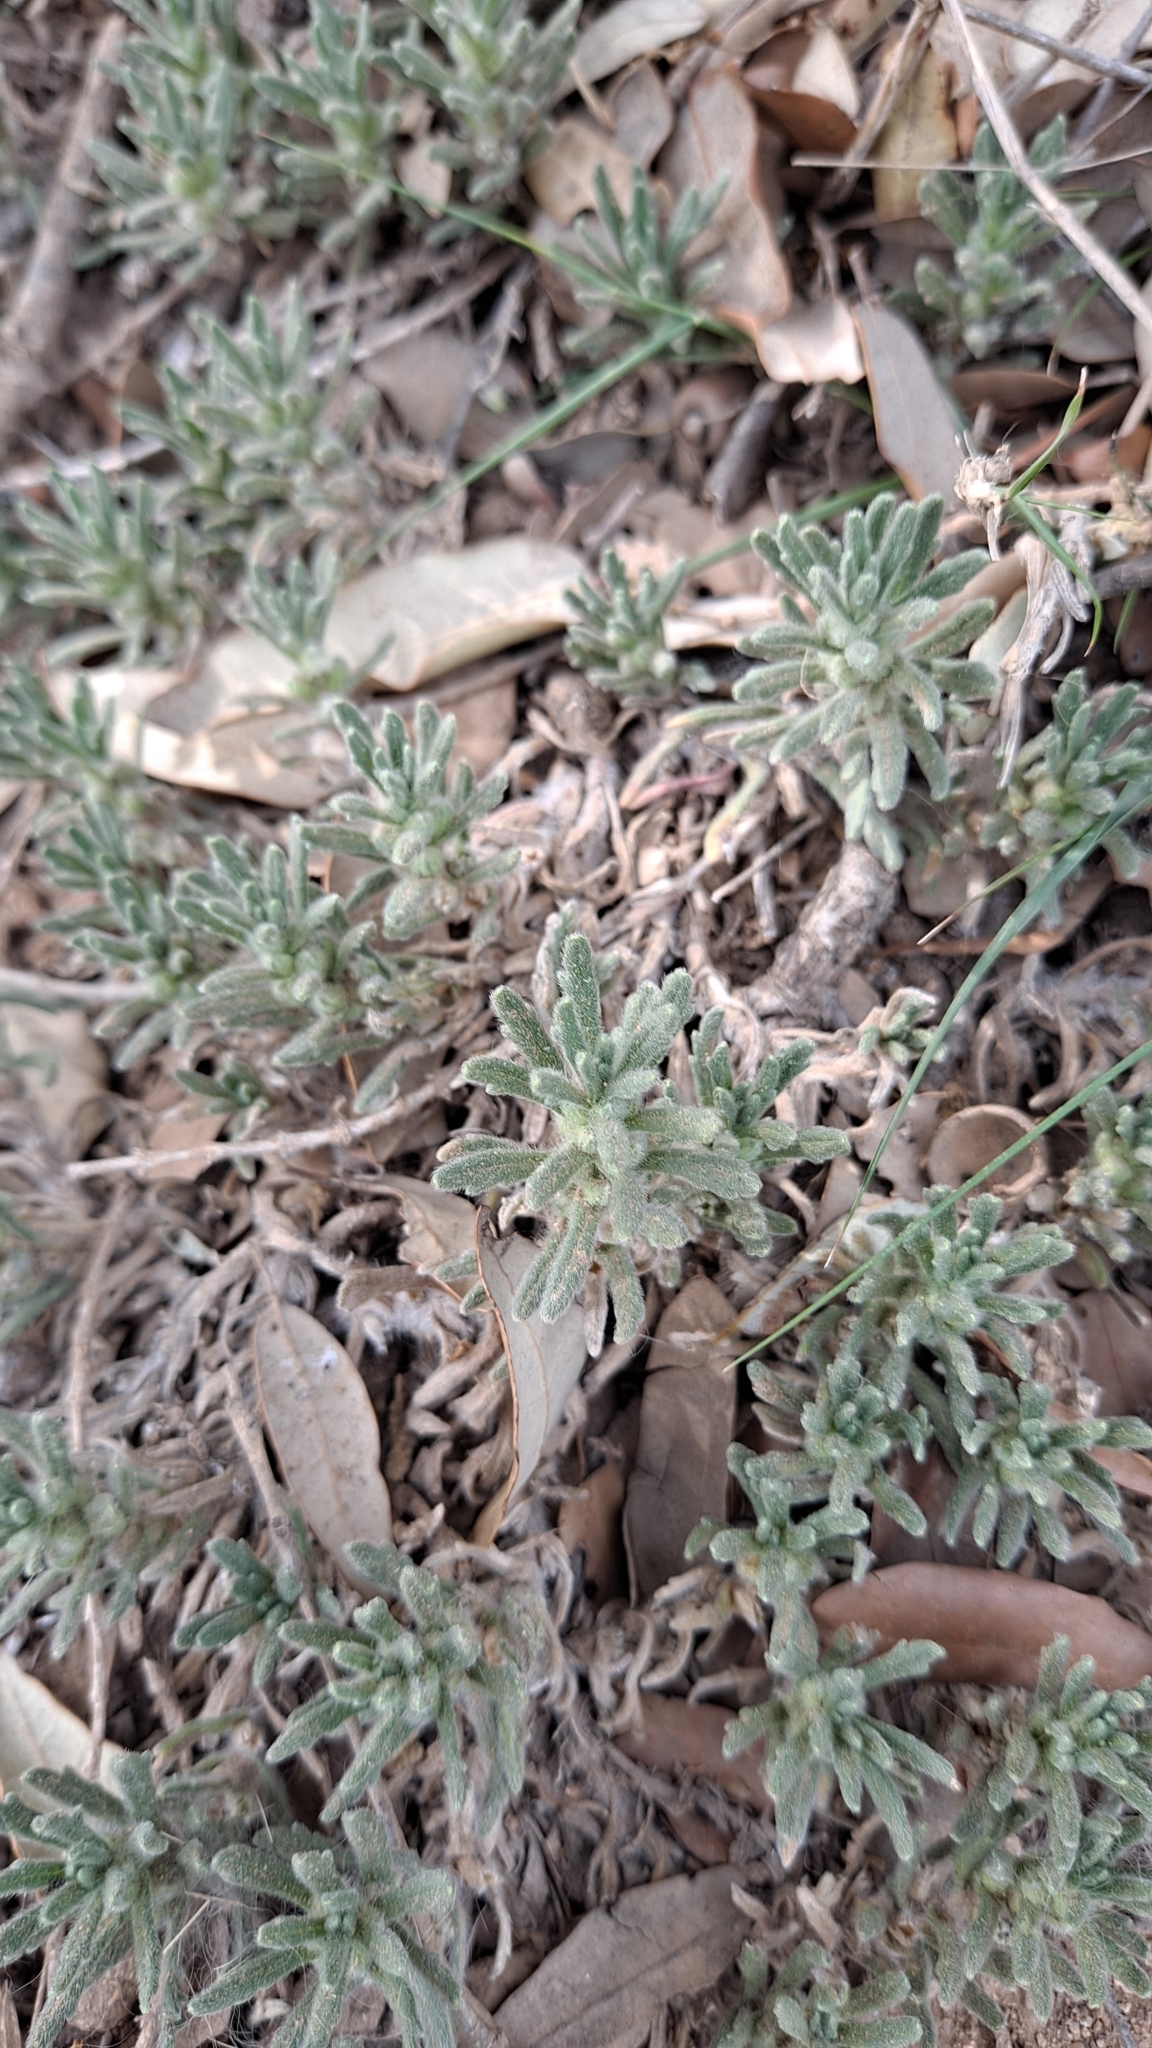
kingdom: Plantae
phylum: Tracheophyta
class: Magnoliopsida
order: Lamiales
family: Lamiaceae
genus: Ajuga
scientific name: Ajuga iva
